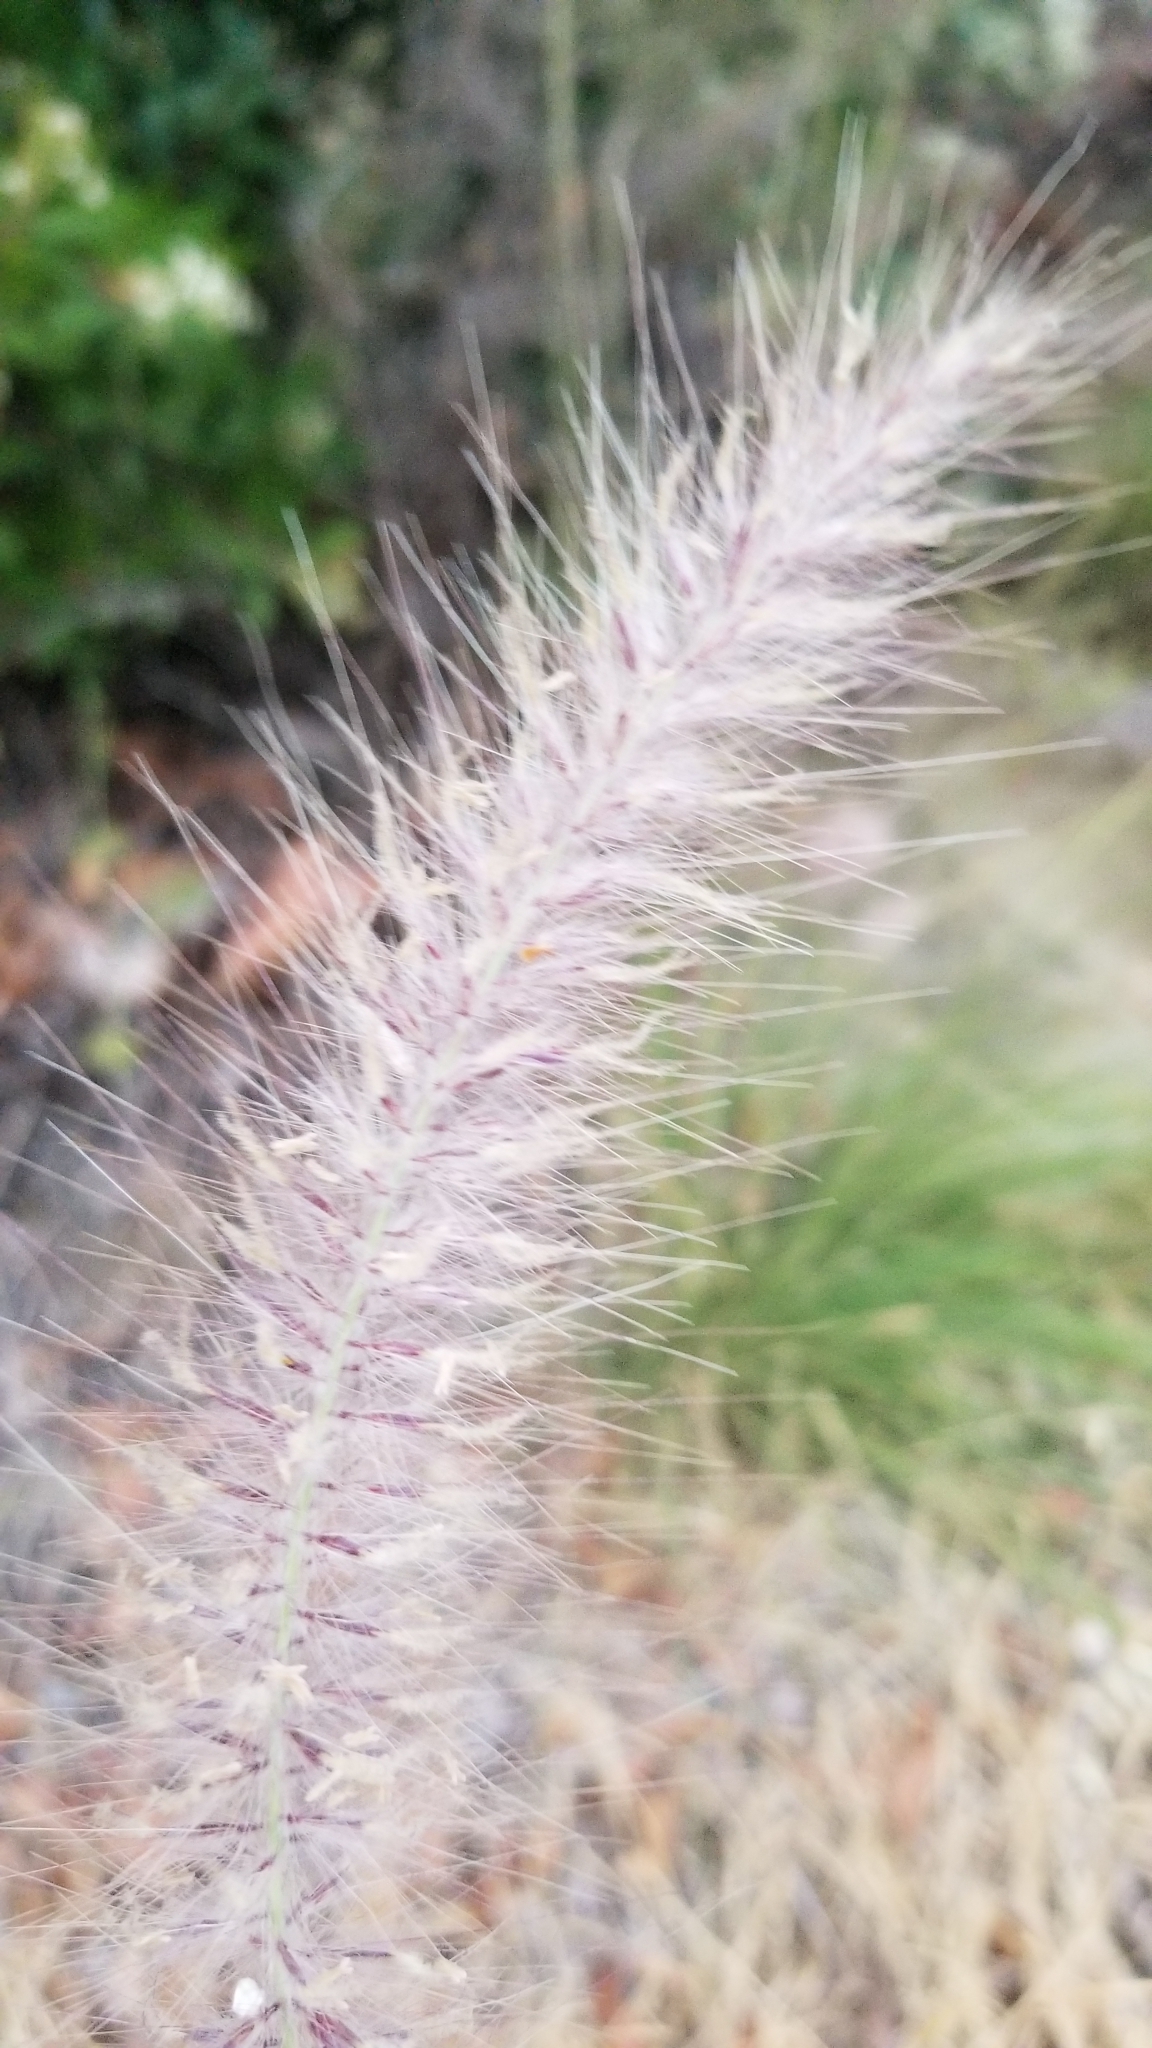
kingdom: Plantae
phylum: Tracheophyta
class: Liliopsida
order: Poales
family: Poaceae
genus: Cenchrus
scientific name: Cenchrus setaceus
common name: Crimson fountaingrass
